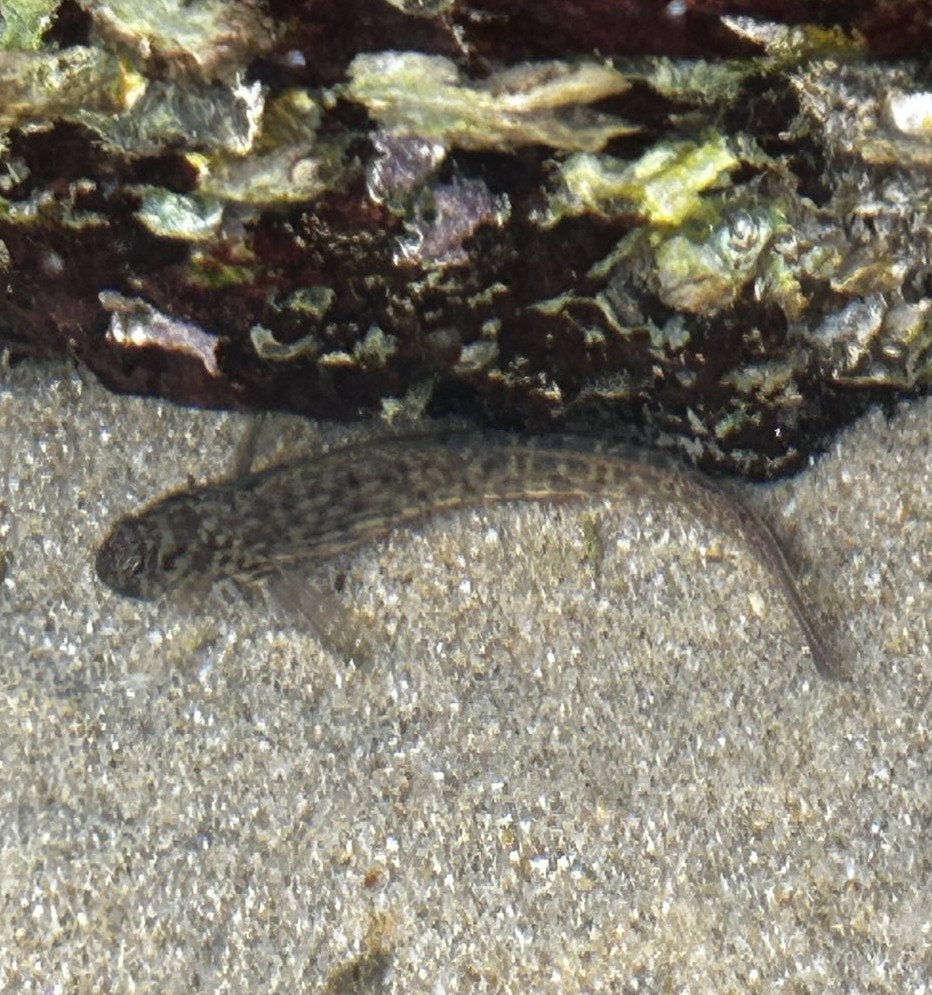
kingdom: Animalia
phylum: Chordata
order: Perciformes
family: Blenniidae
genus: Istiblennius
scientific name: Istiblennius dussumieri
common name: Dussumier's rockskipper
